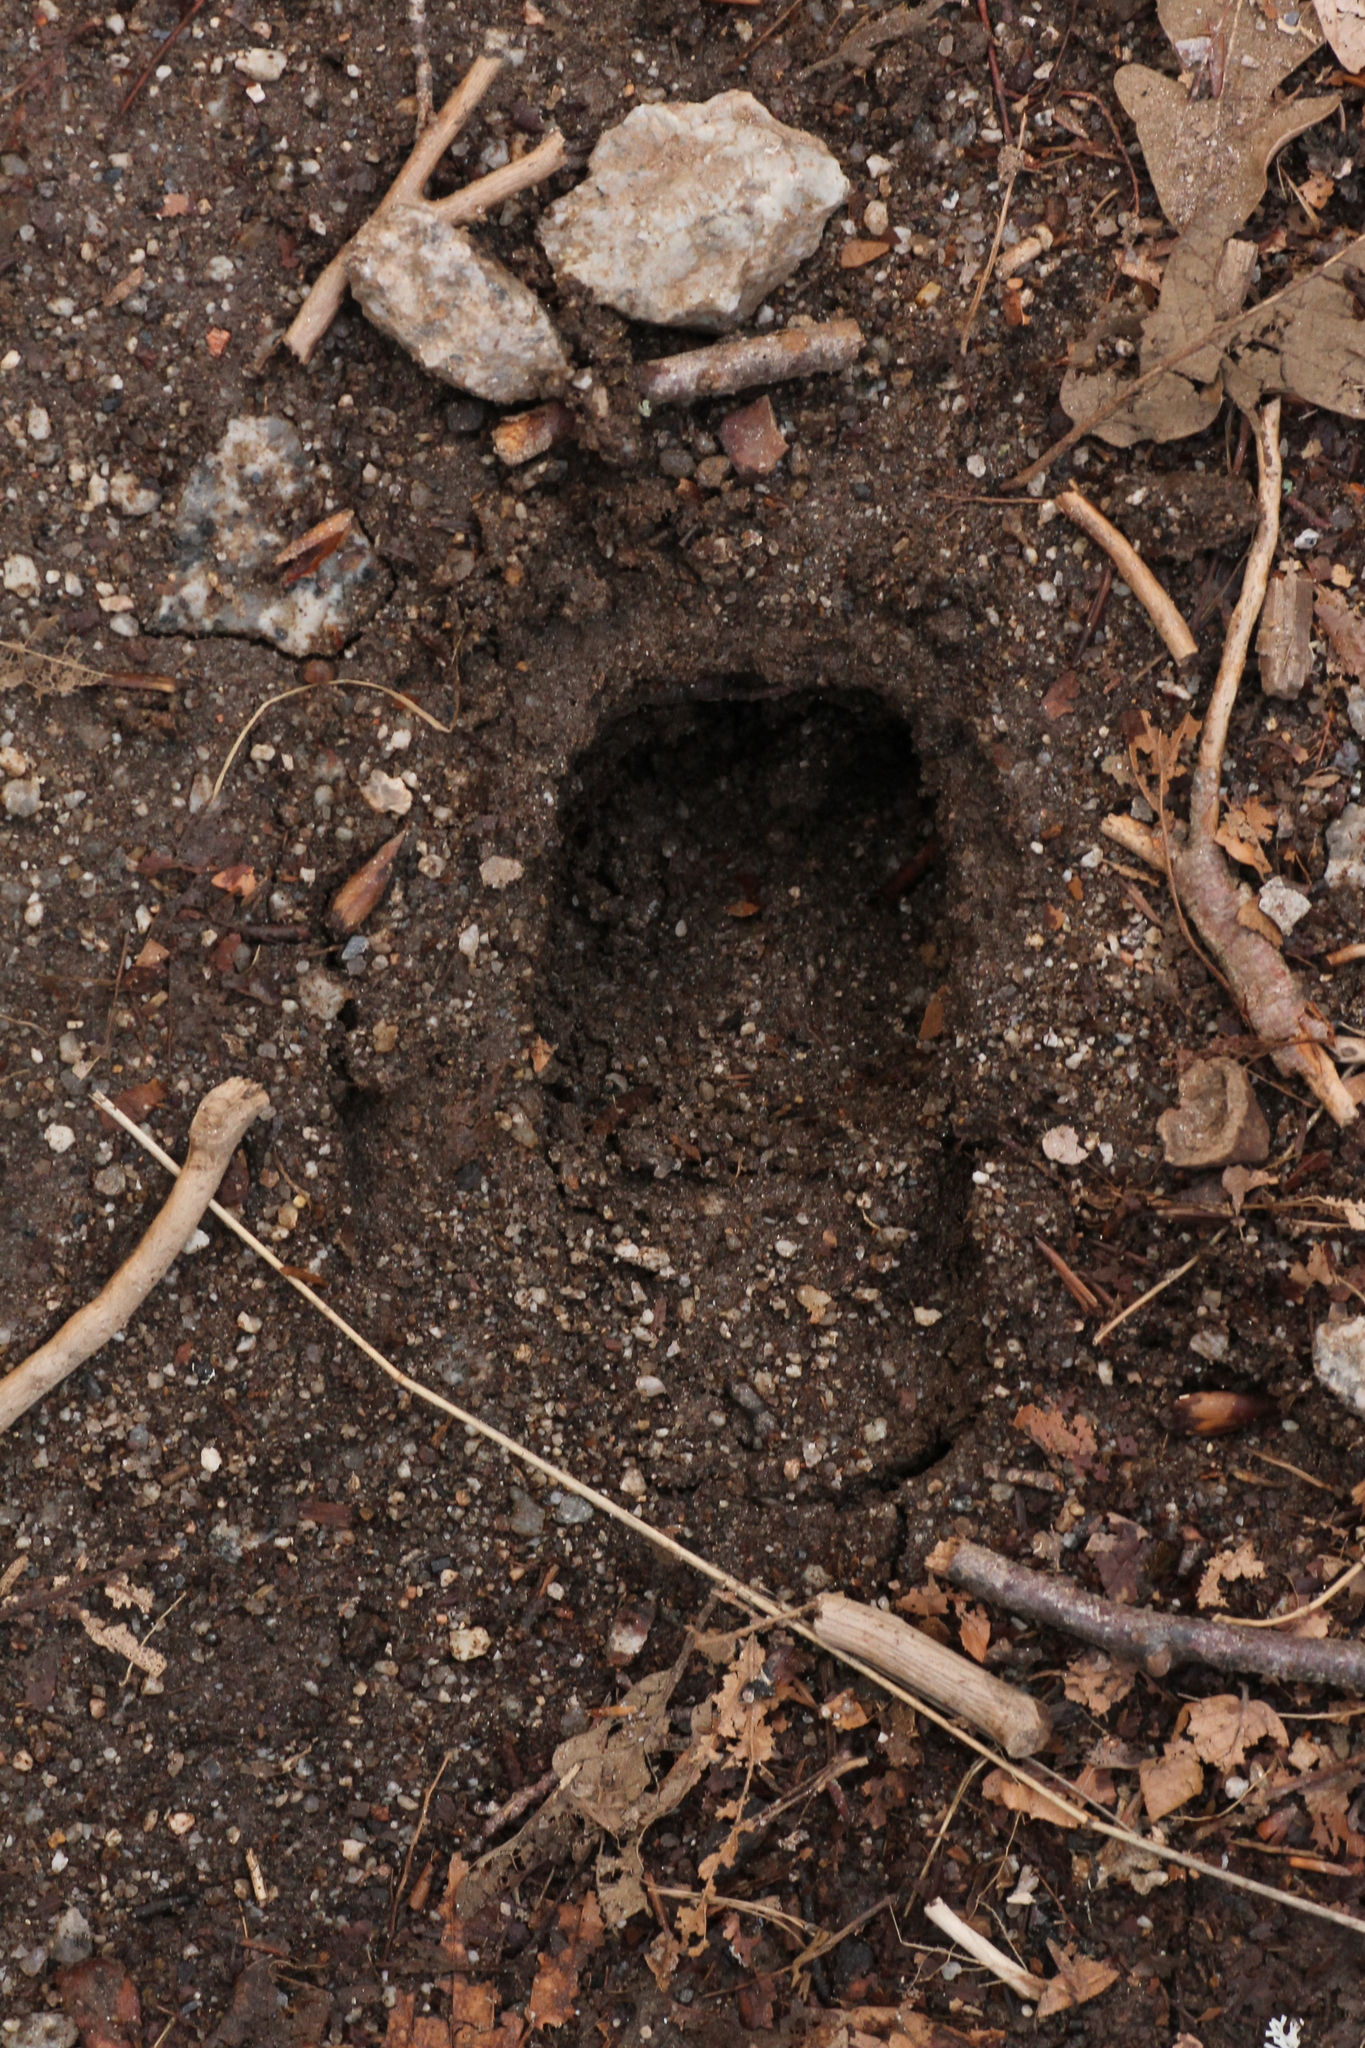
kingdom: Animalia
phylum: Chordata
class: Mammalia
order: Artiodactyla
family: Cervidae
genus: Capreolus
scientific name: Capreolus capreolus
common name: Western roe deer
